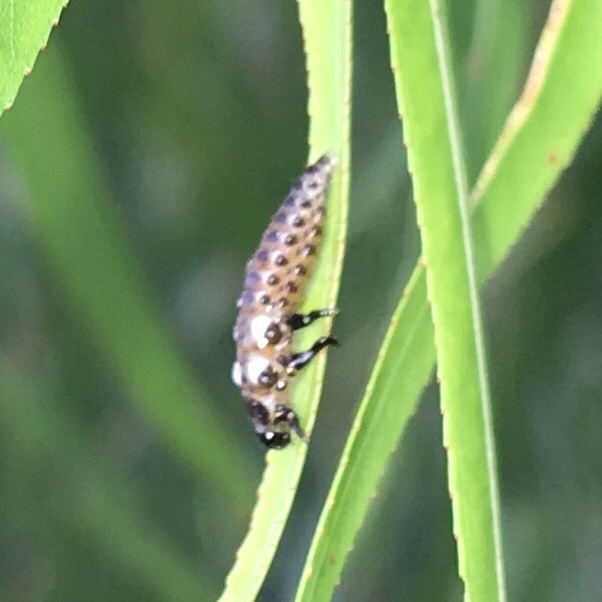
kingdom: Animalia
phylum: Arthropoda
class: Insecta
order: Coleoptera
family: Chrysomelidae
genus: Aethiopocassis
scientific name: Aethiopocassis scripta
